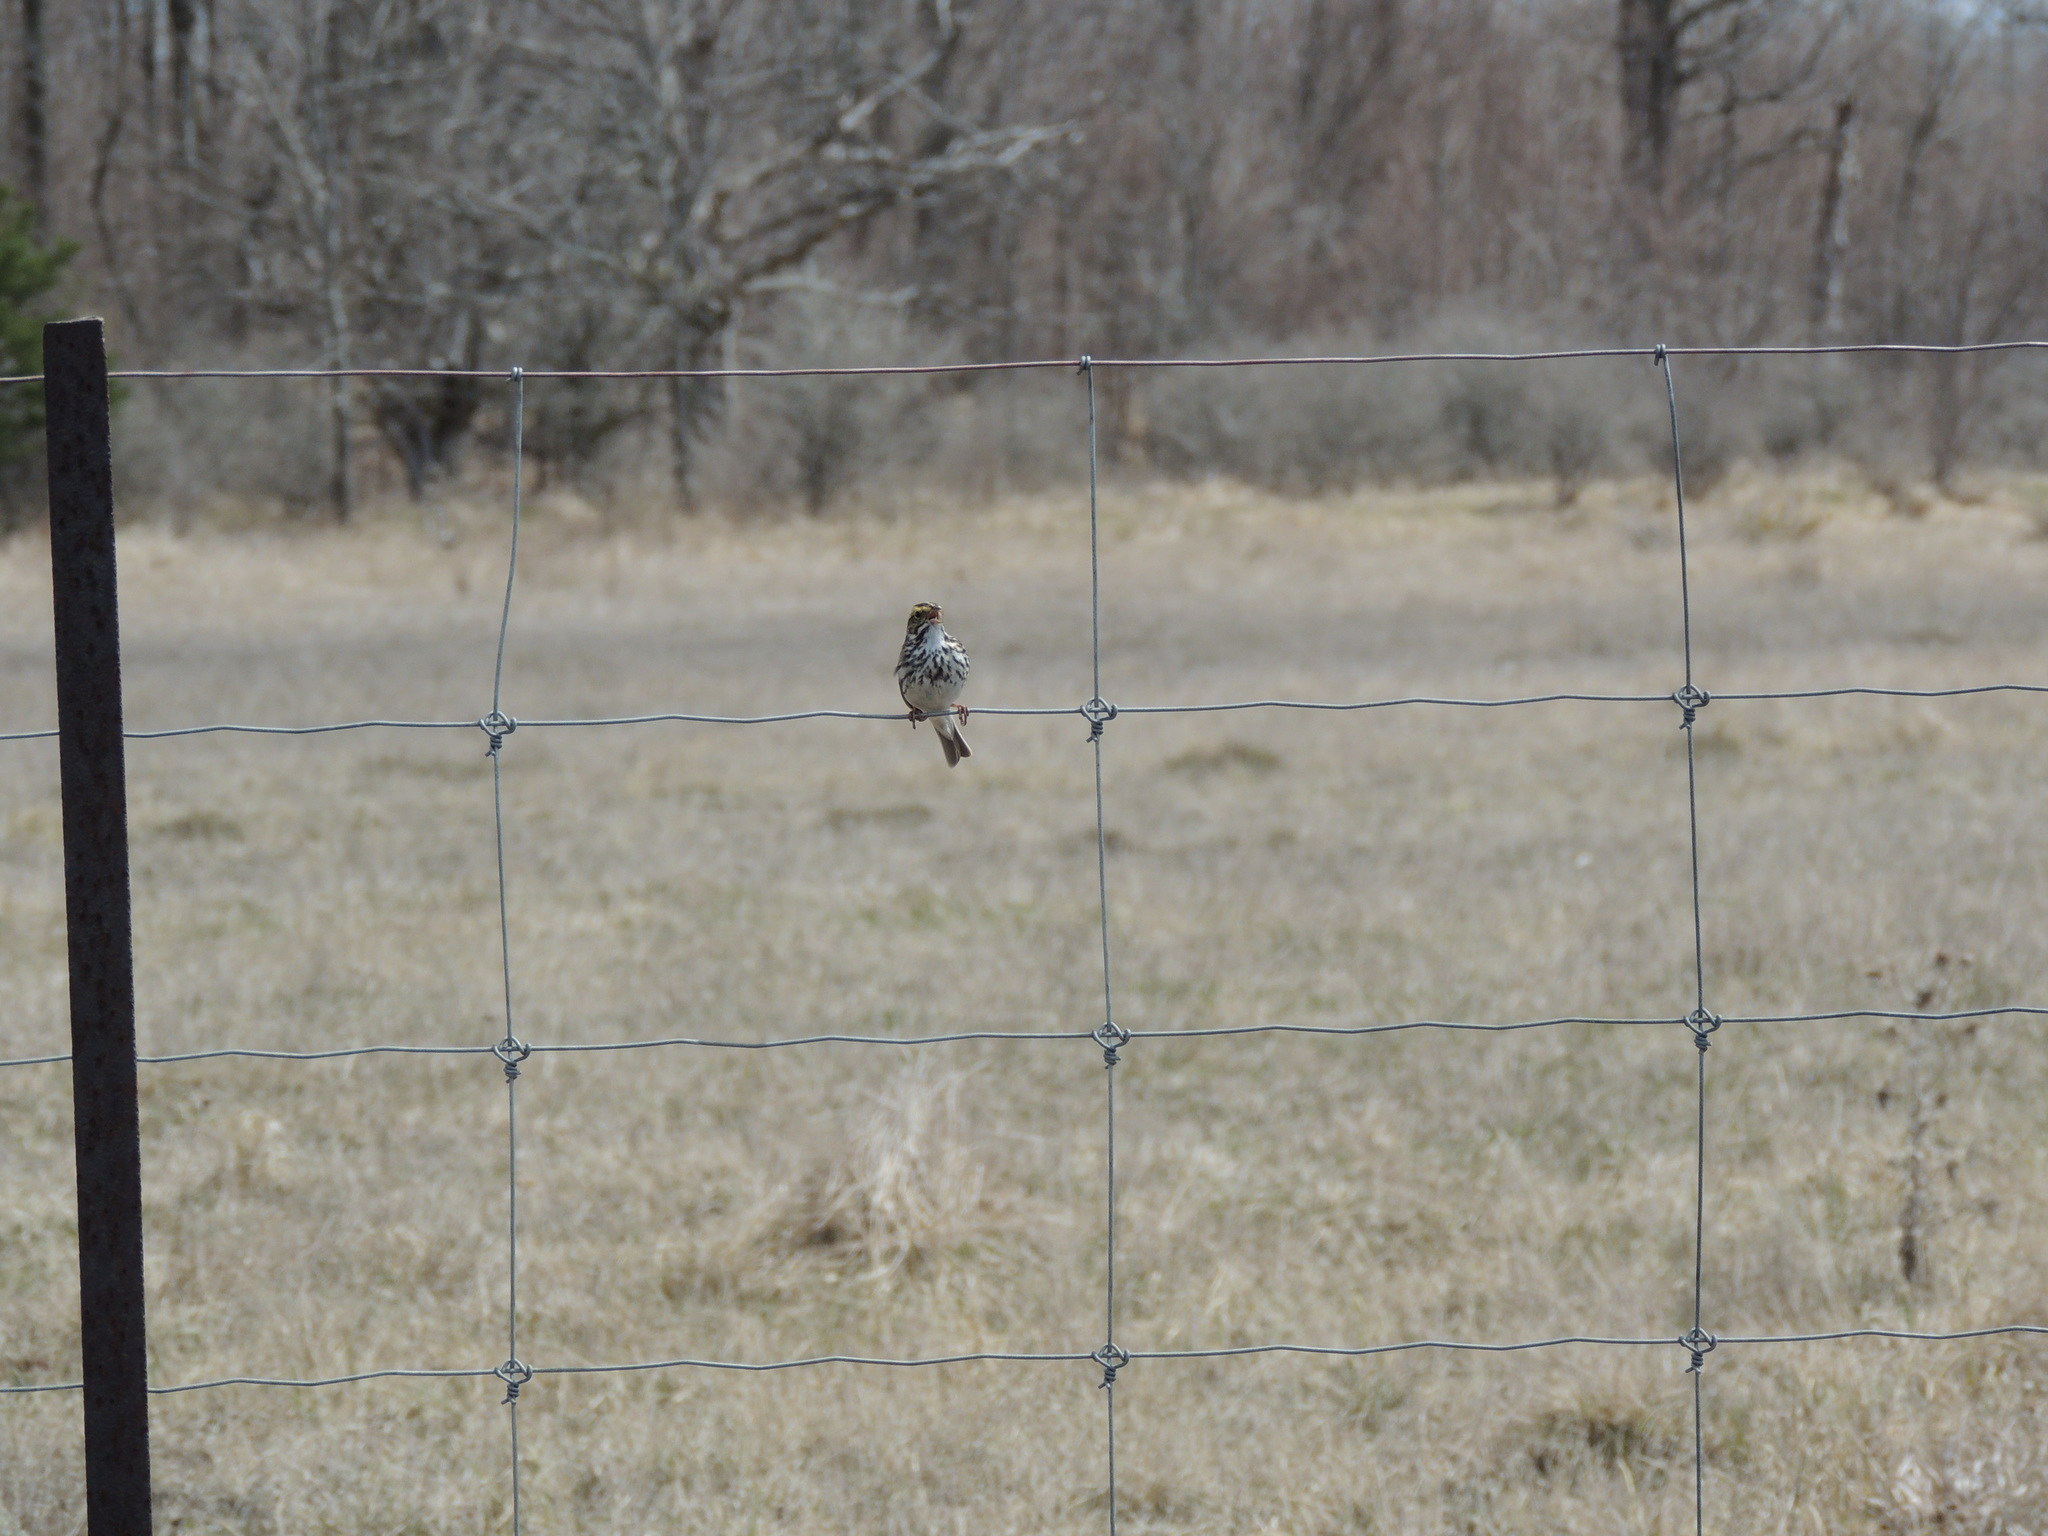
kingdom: Animalia
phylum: Chordata
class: Aves
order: Passeriformes
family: Passerellidae
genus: Passerculus
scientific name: Passerculus sandwichensis
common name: Savannah sparrow
